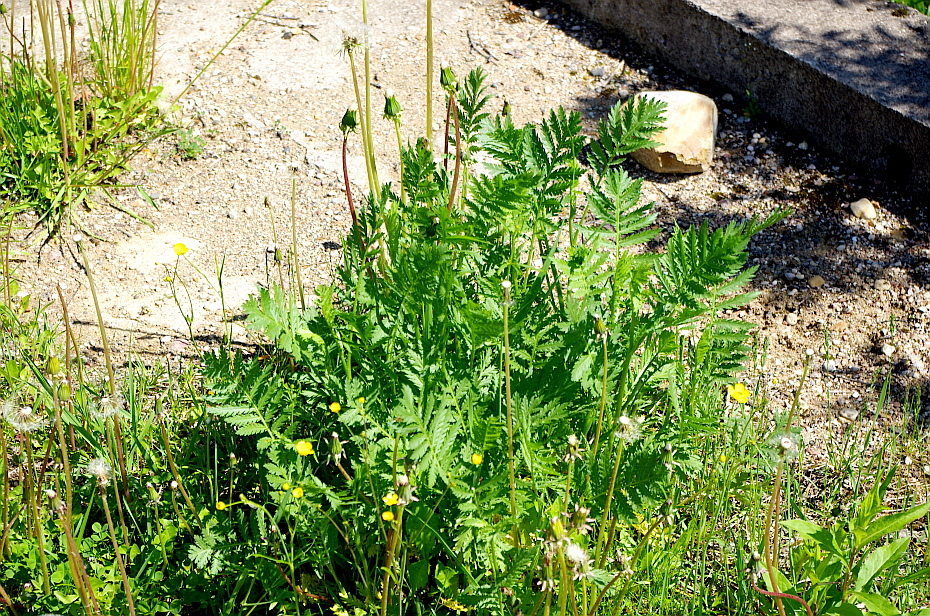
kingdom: Plantae
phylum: Tracheophyta
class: Magnoliopsida
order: Asterales
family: Asteraceae
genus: Tanacetum
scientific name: Tanacetum vulgare
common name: Common tansy
